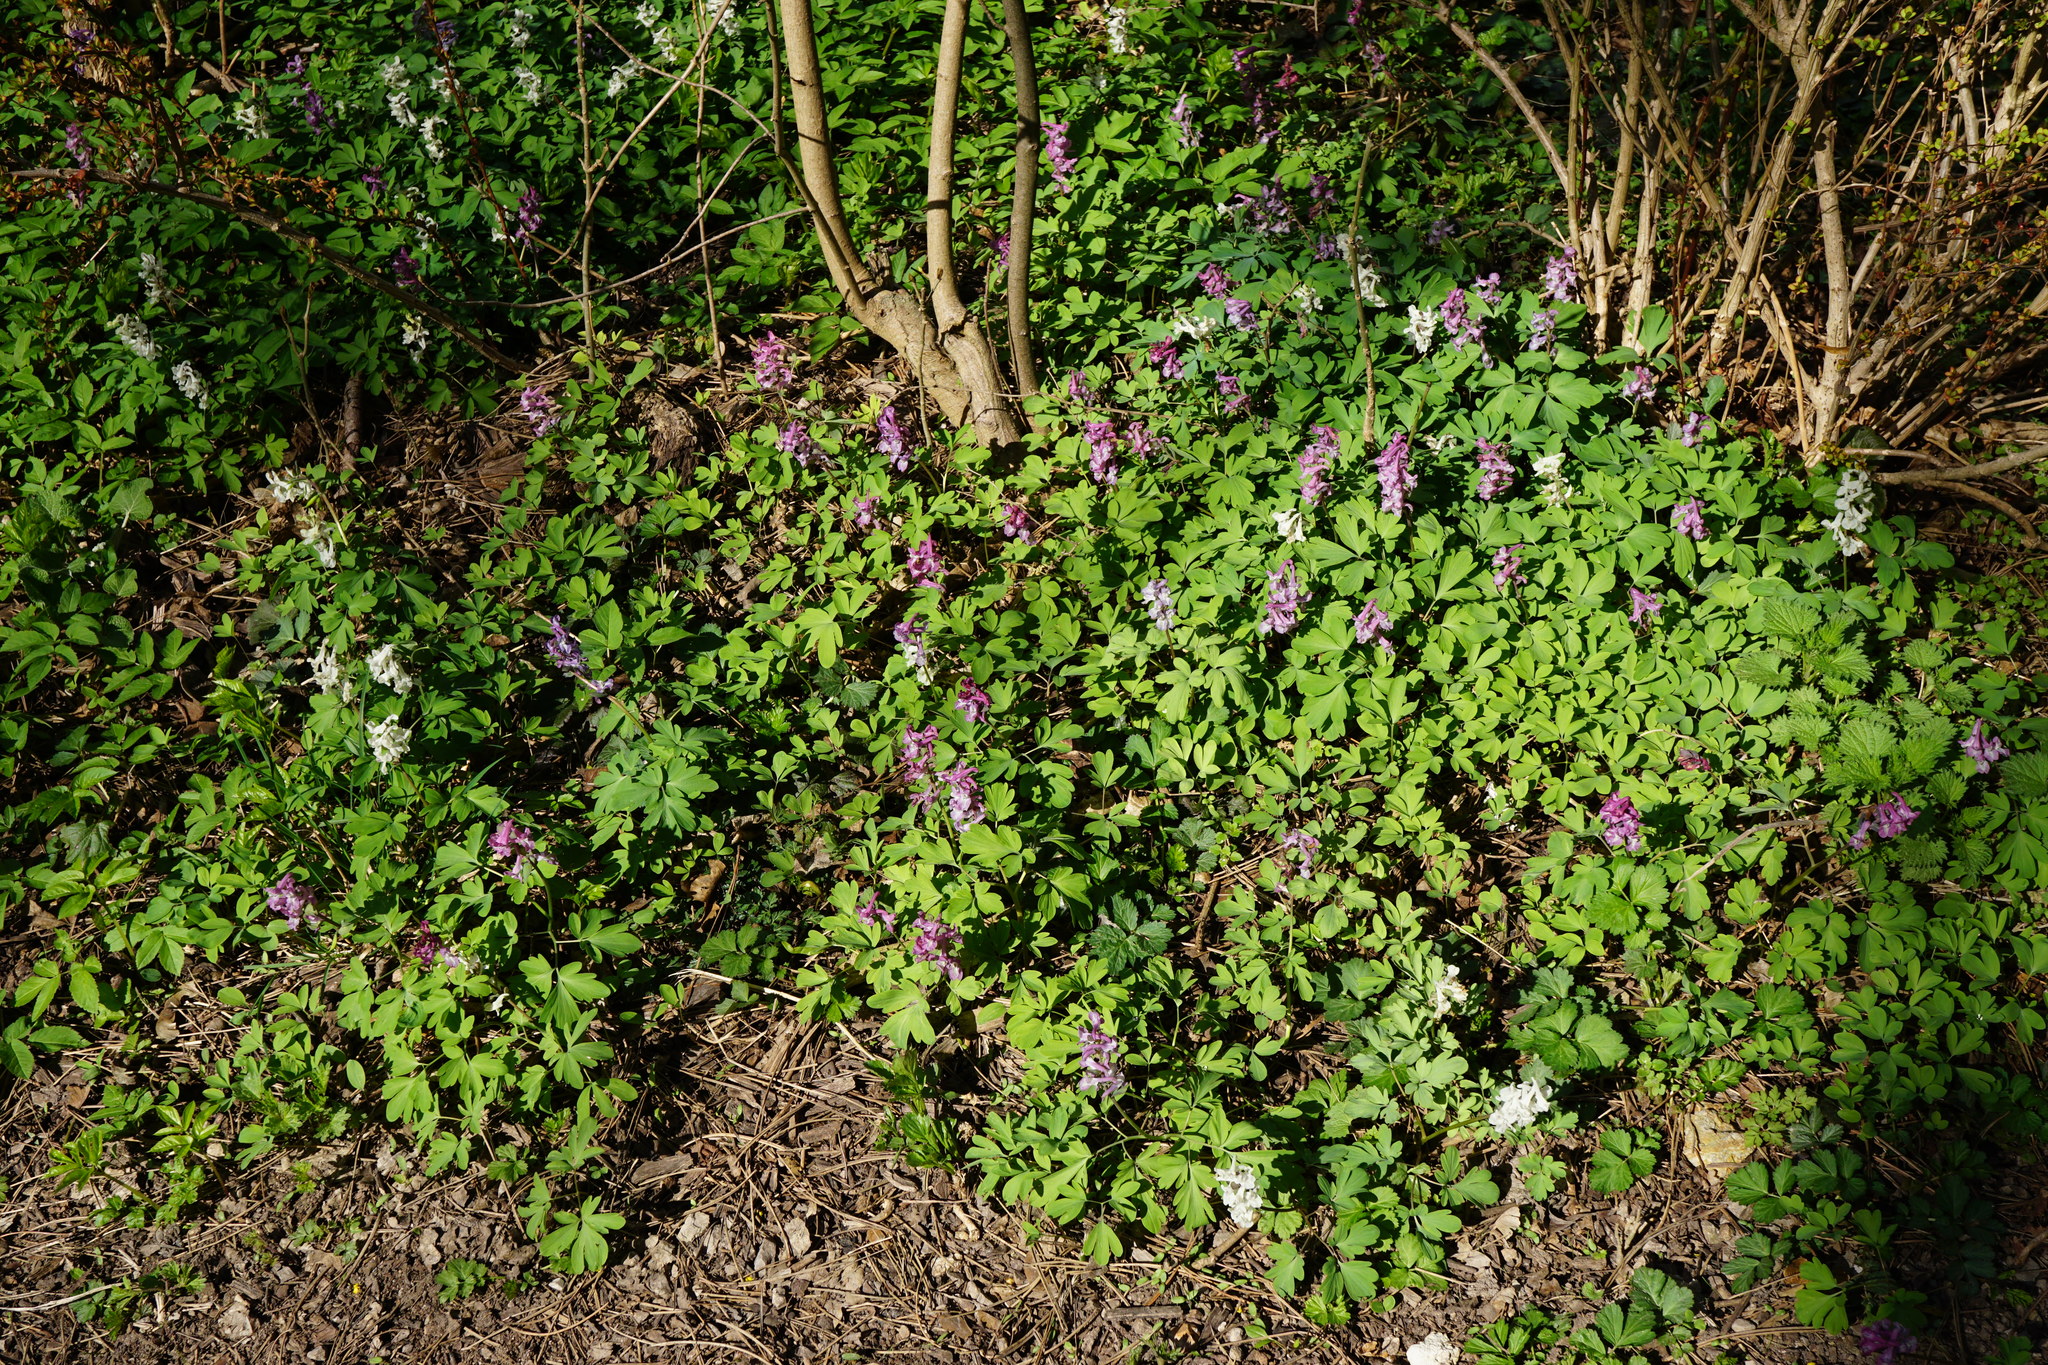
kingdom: Plantae
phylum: Tracheophyta
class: Magnoliopsida
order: Ranunculales
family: Papaveraceae
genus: Corydalis
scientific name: Corydalis cava
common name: Hollowroot
